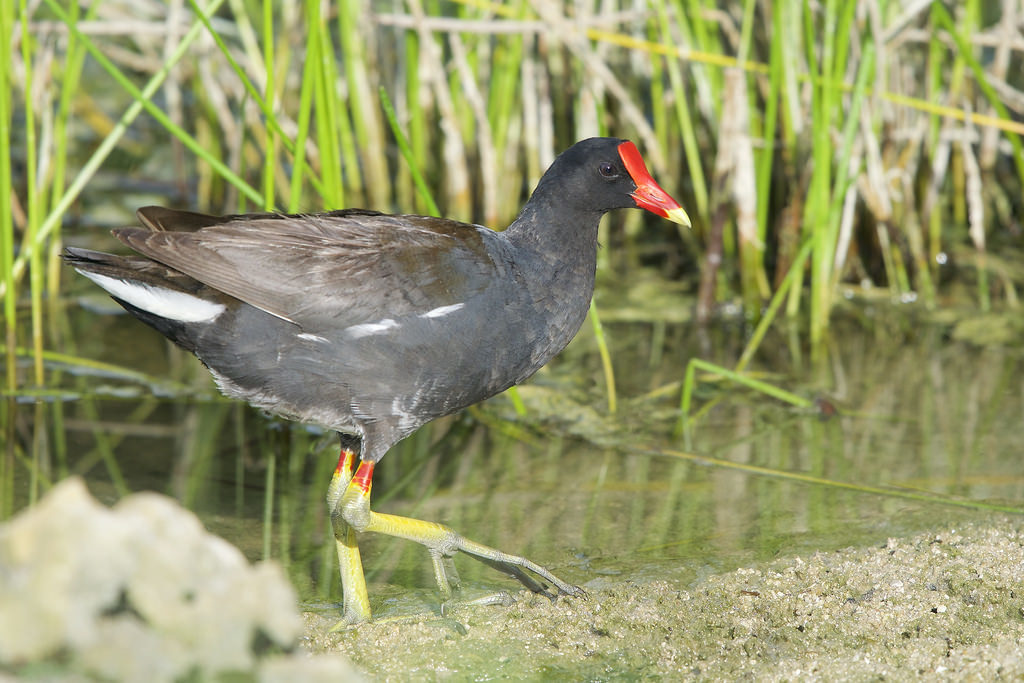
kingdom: Animalia
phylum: Chordata
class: Aves
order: Gruiformes
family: Rallidae
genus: Gallinula
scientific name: Gallinula chloropus
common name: Common moorhen
